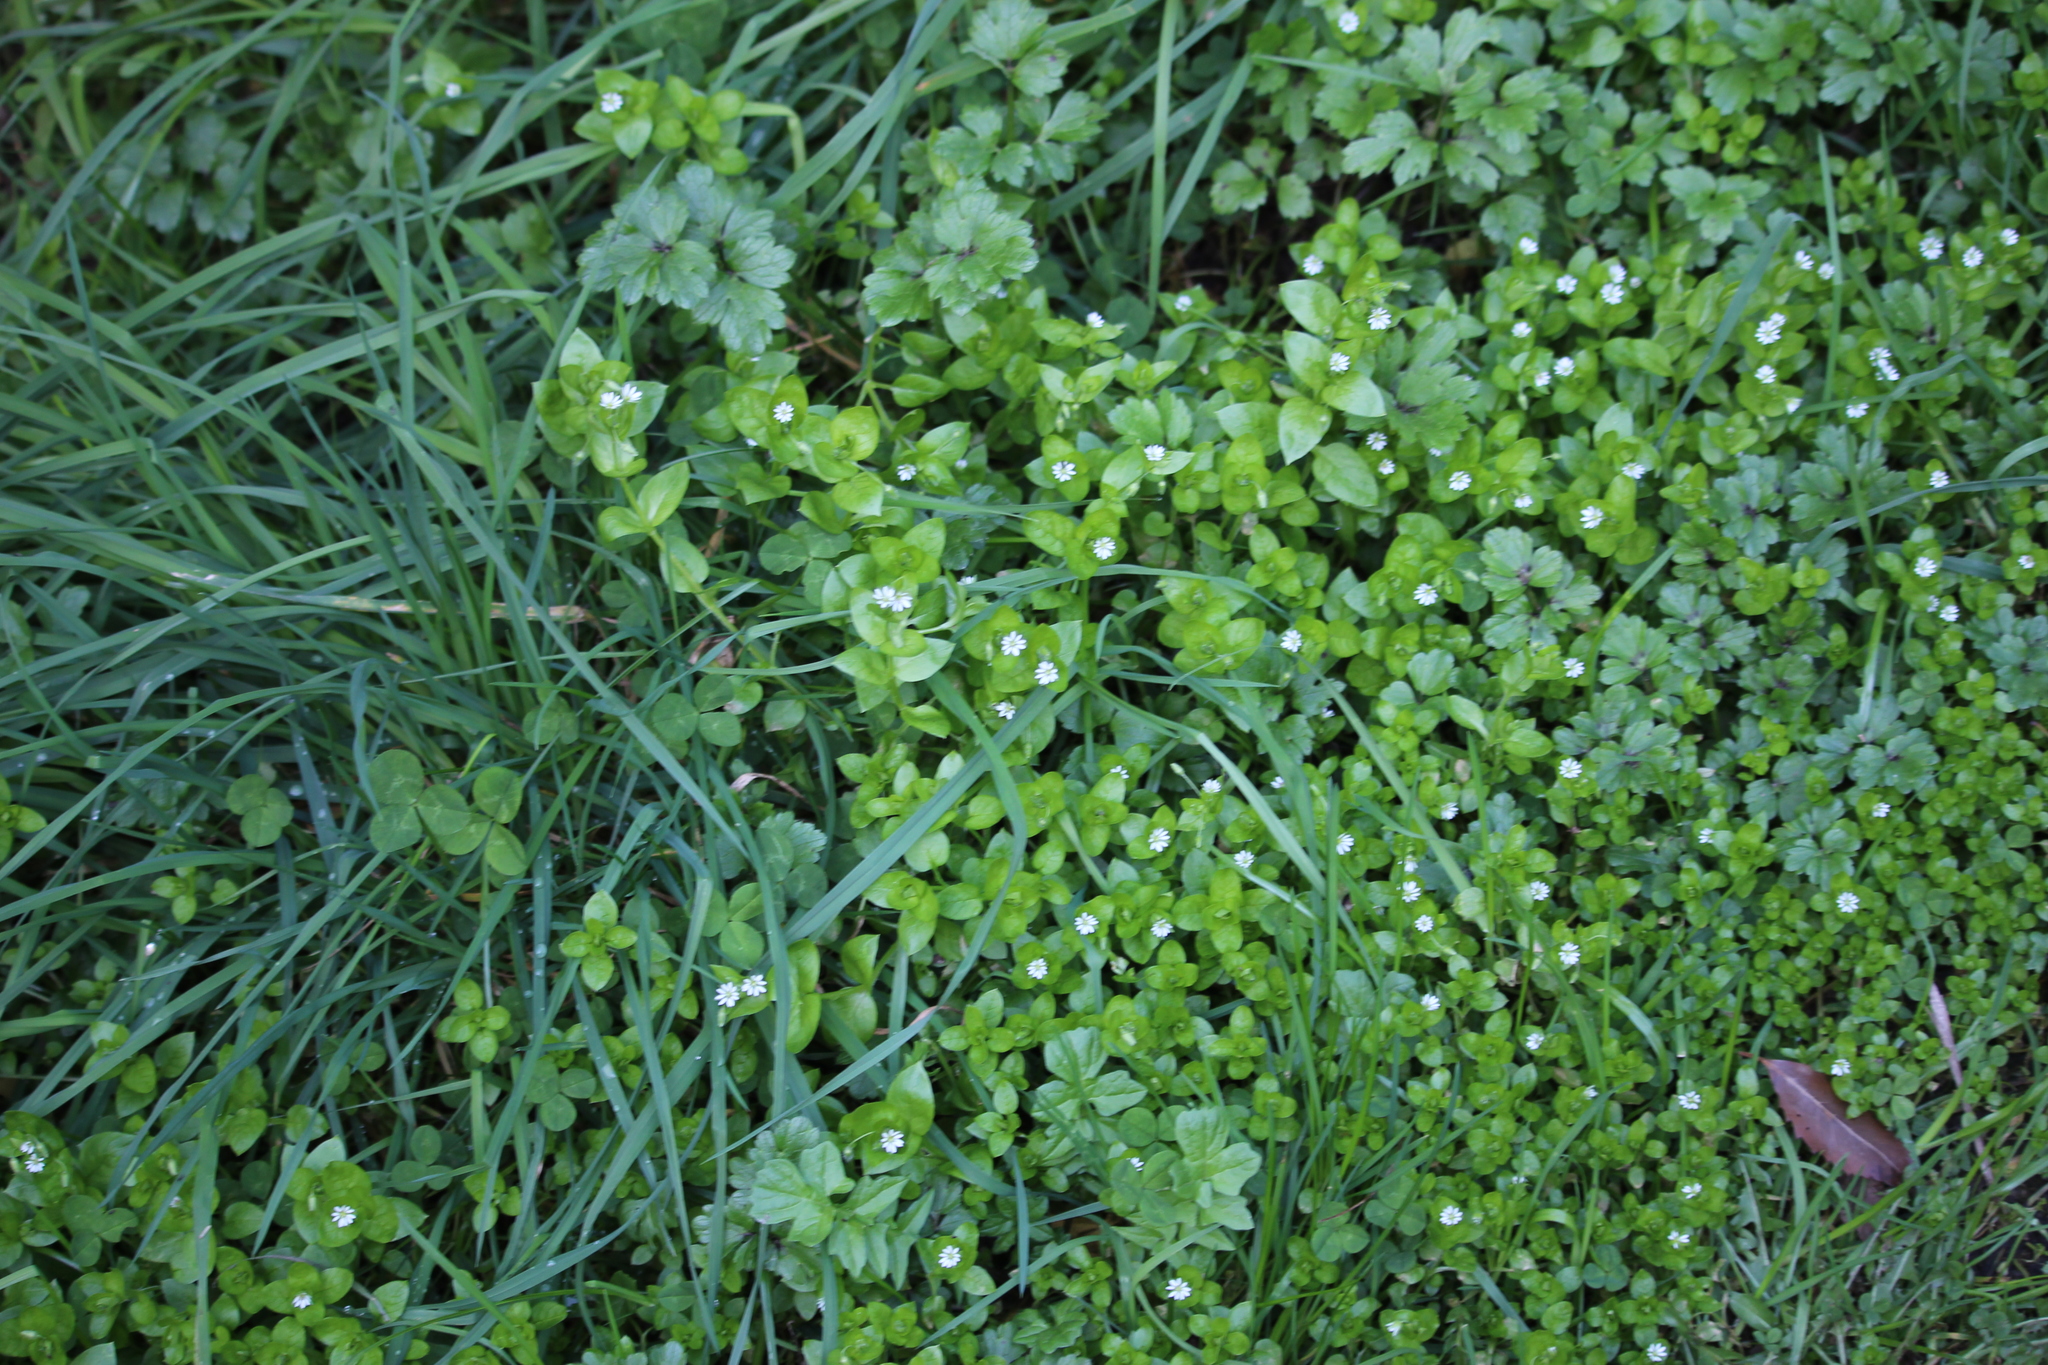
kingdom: Plantae
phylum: Tracheophyta
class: Magnoliopsida
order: Caryophyllales
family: Caryophyllaceae
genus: Stellaria
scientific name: Stellaria media
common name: Common chickweed
